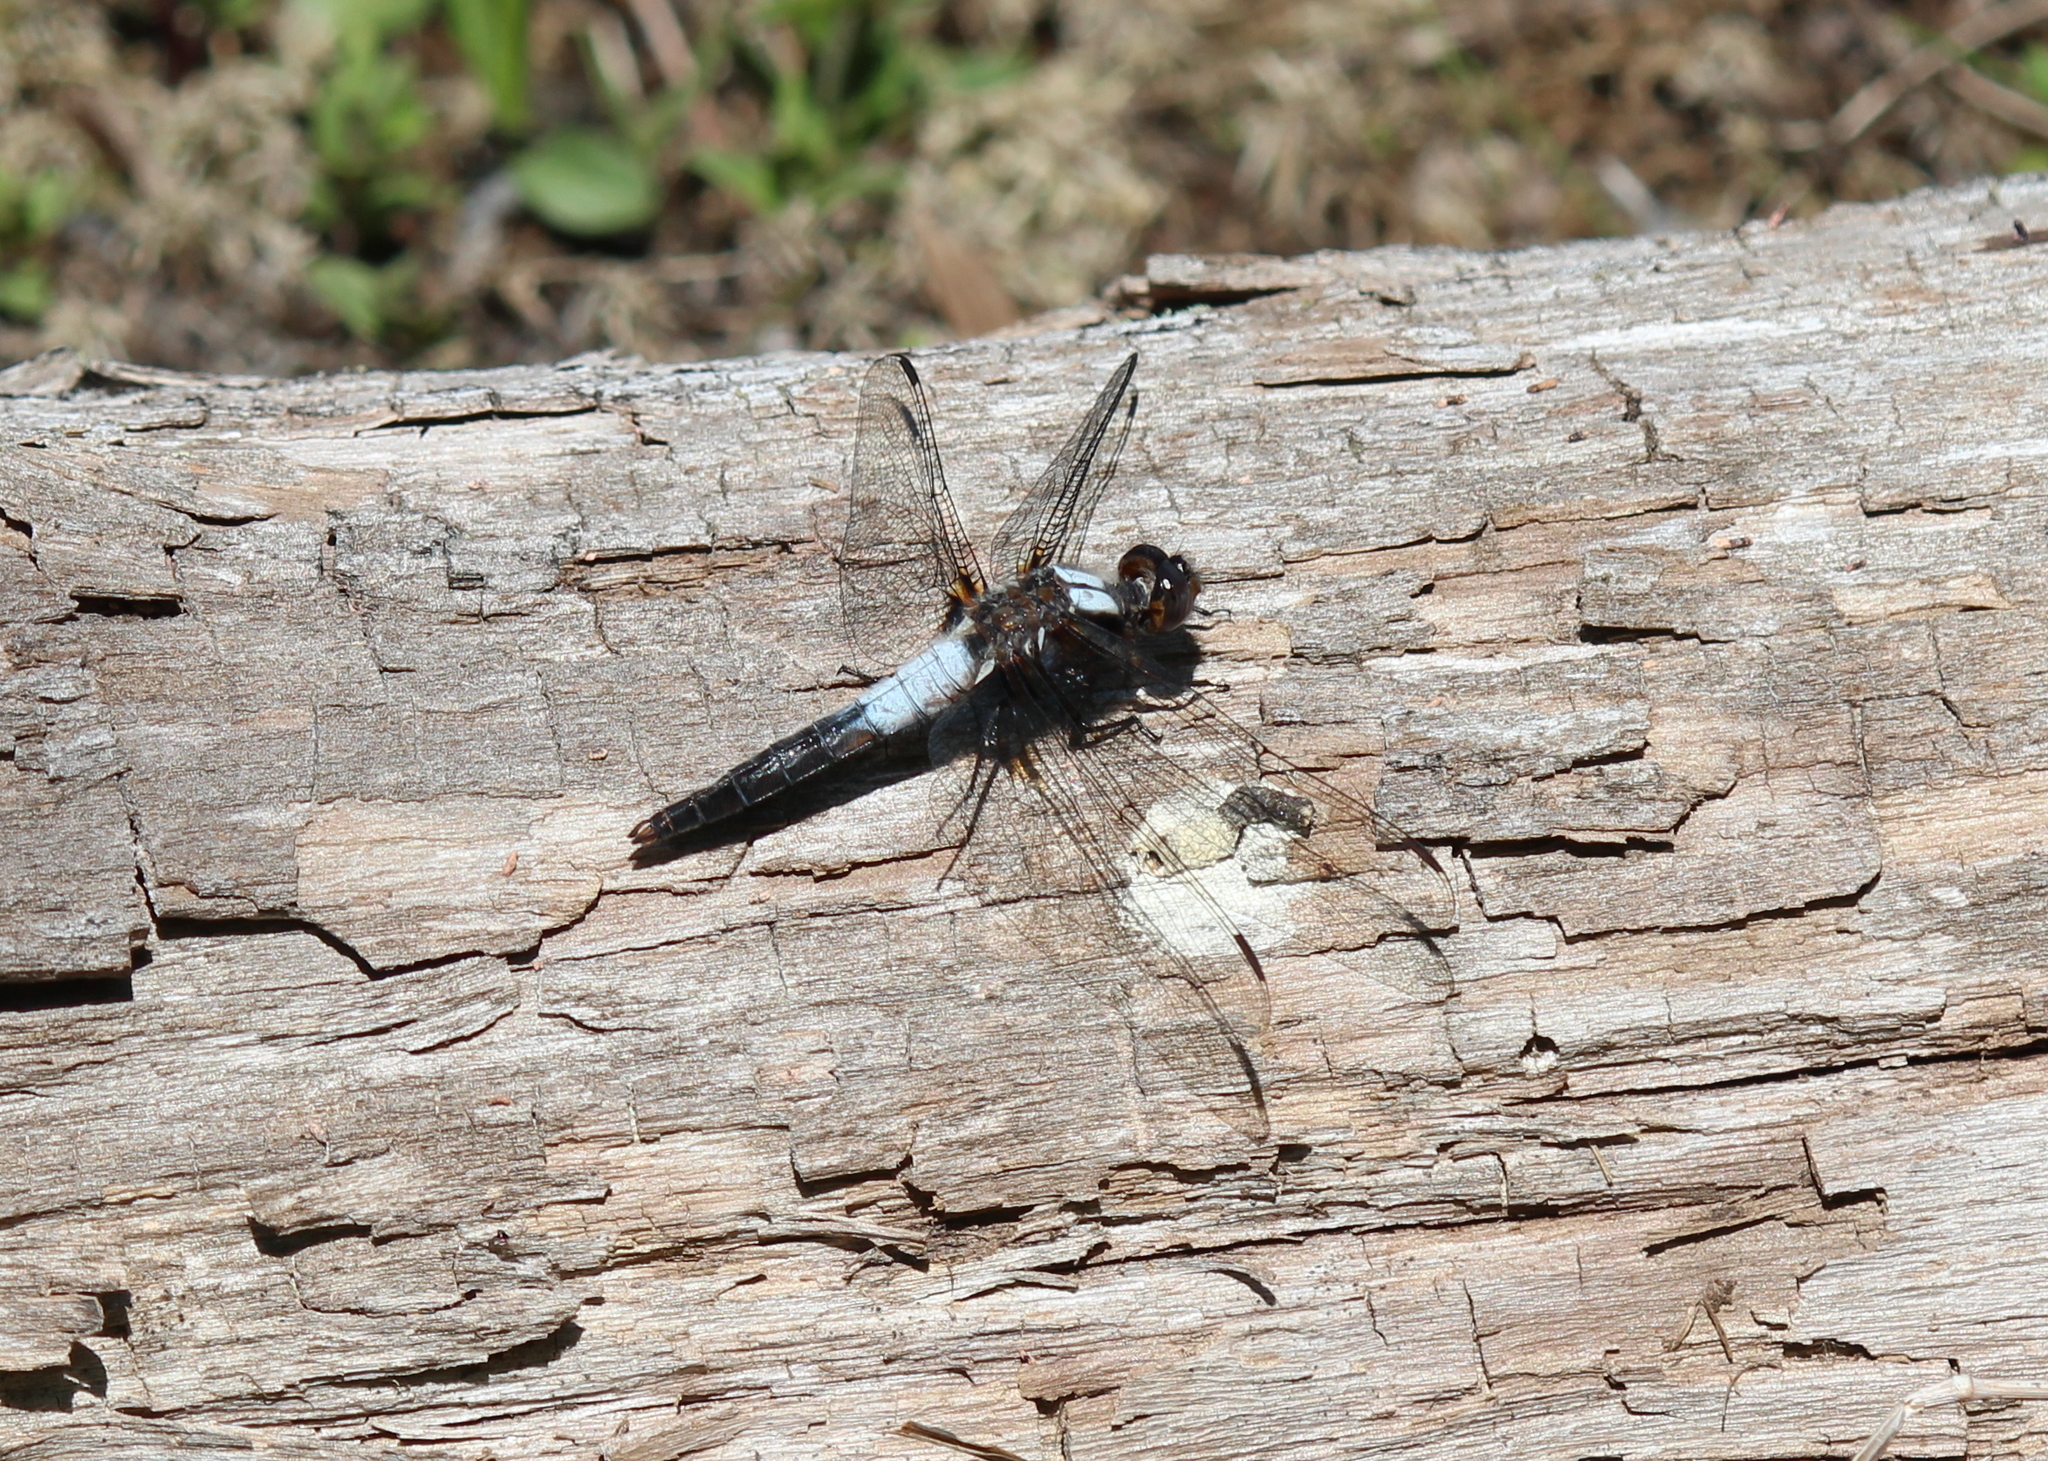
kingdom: Animalia
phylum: Arthropoda
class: Insecta
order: Odonata
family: Libellulidae
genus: Ladona
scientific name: Ladona julia
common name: Chalk-fronted corporal
